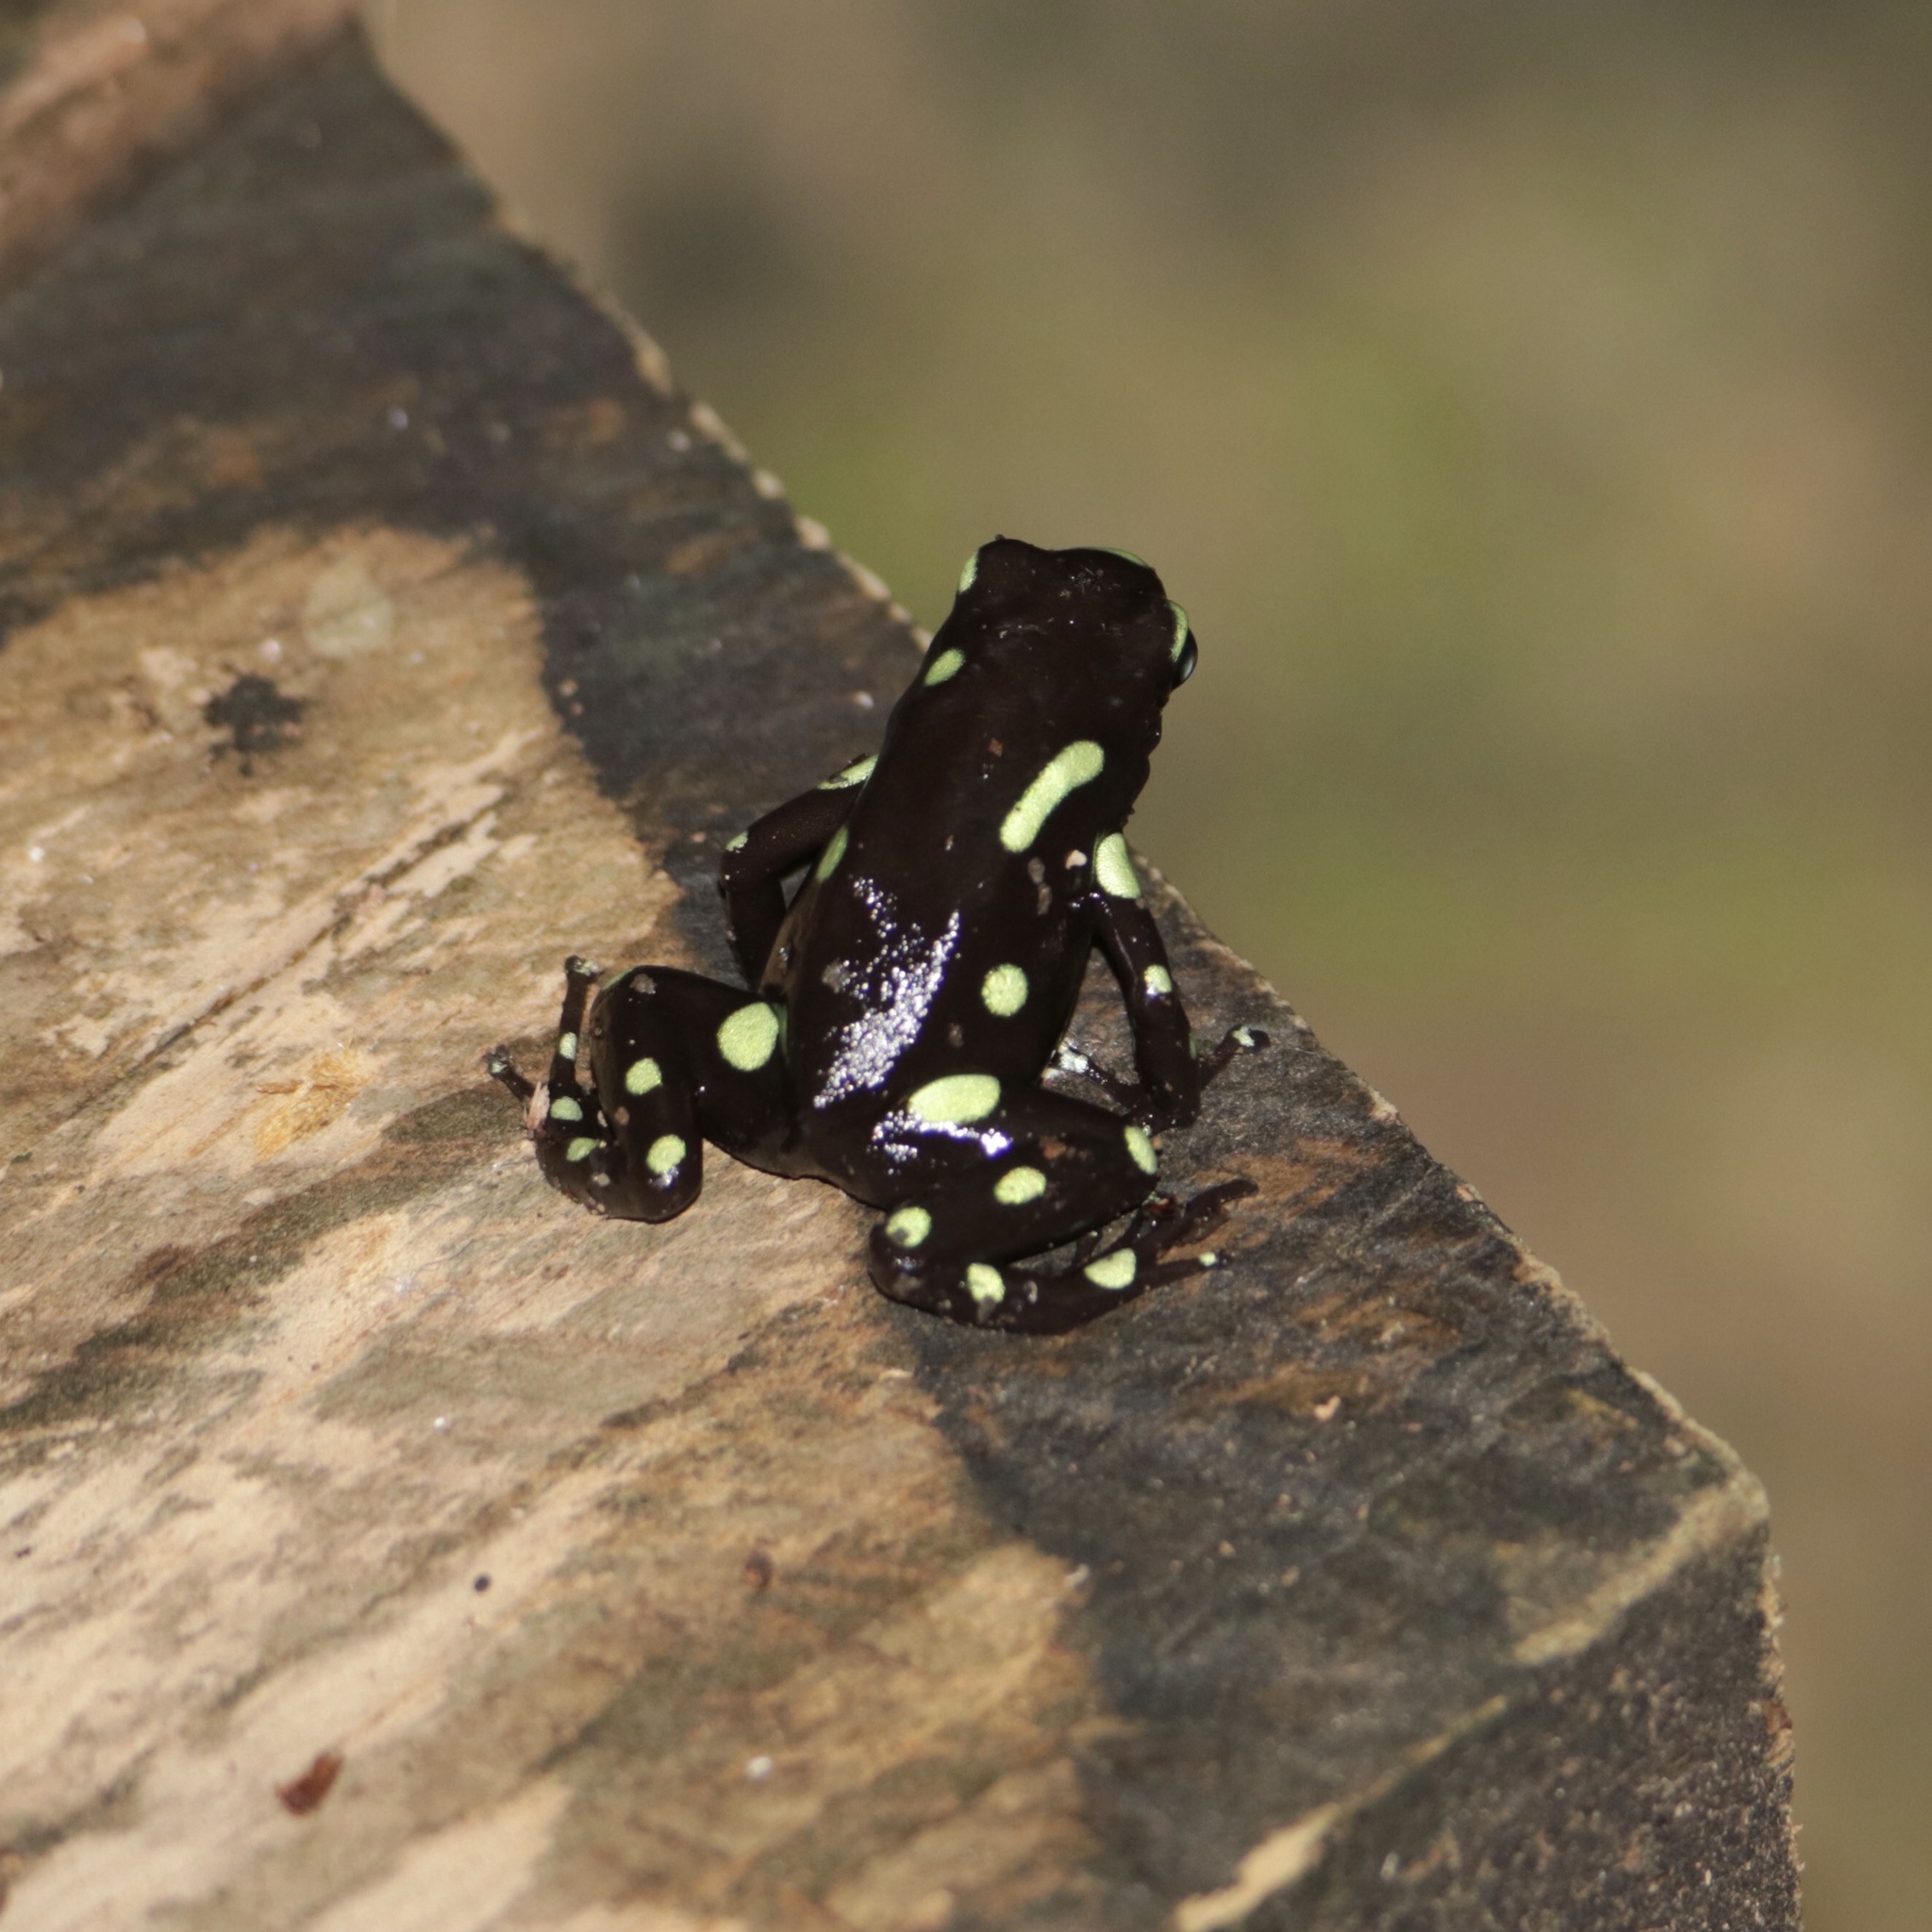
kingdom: Animalia
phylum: Chordata
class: Amphibia
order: Anura
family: Dendrobatidae
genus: Dendrobates
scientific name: Dendrobates auratus
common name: Green and black poison dart frog
